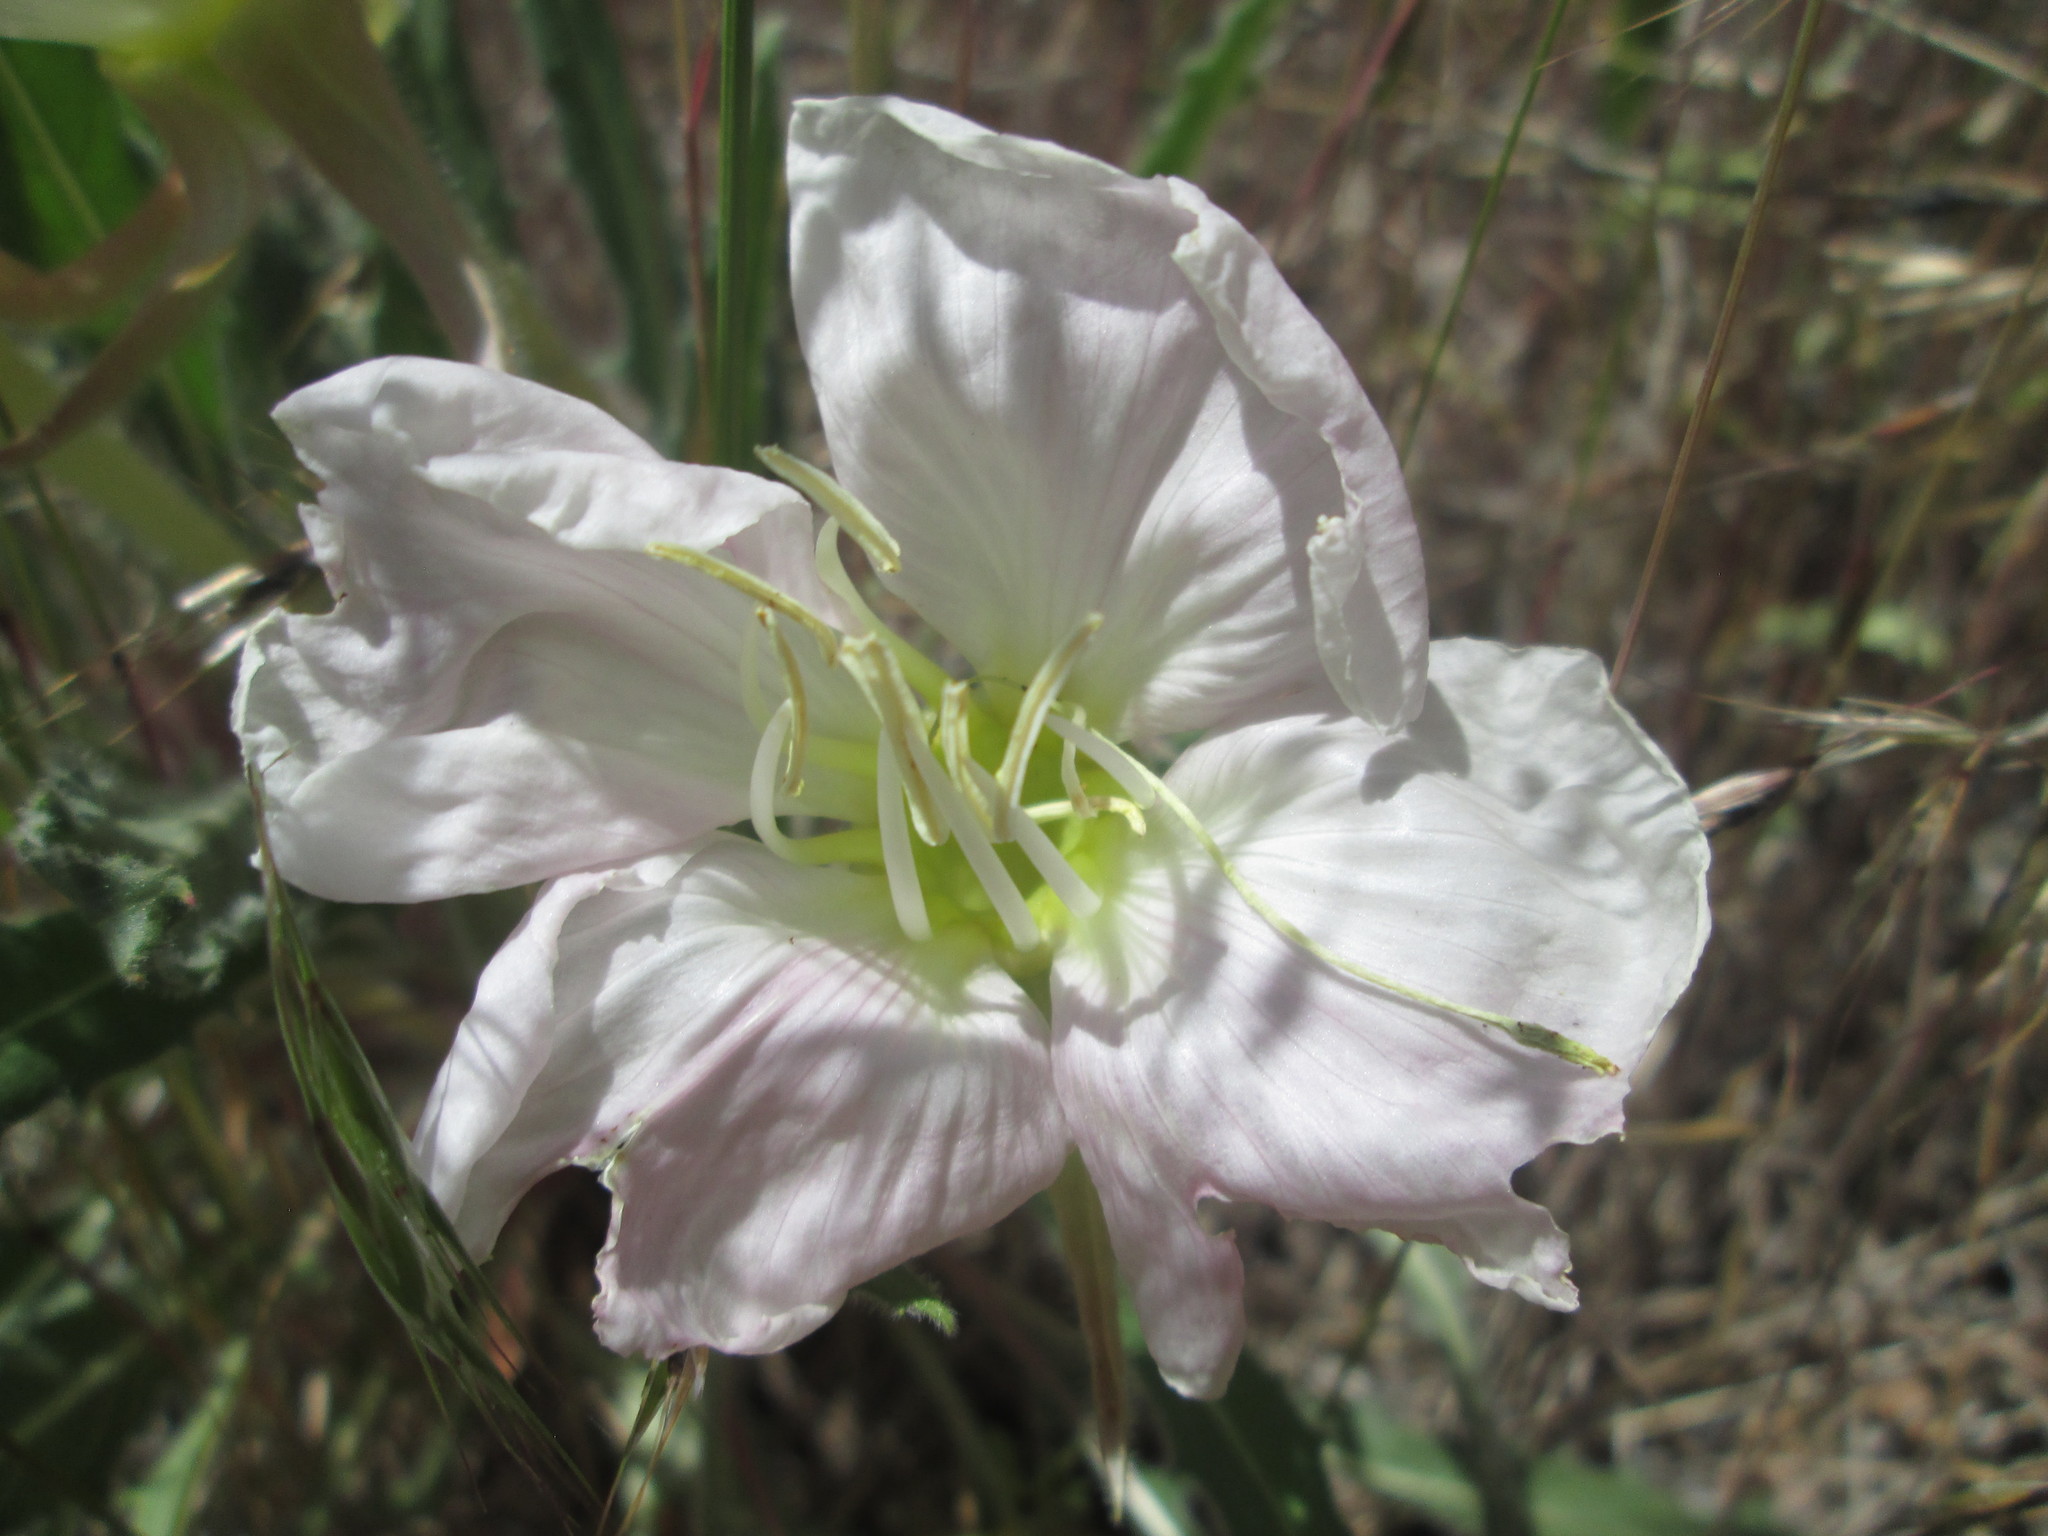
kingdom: Plantae
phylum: Tracheophyta
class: Magnoliopsida
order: Myrtales
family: Onagraceae
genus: Oenothera
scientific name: Oenothera cespitosa
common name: Tufted evening-primrose
